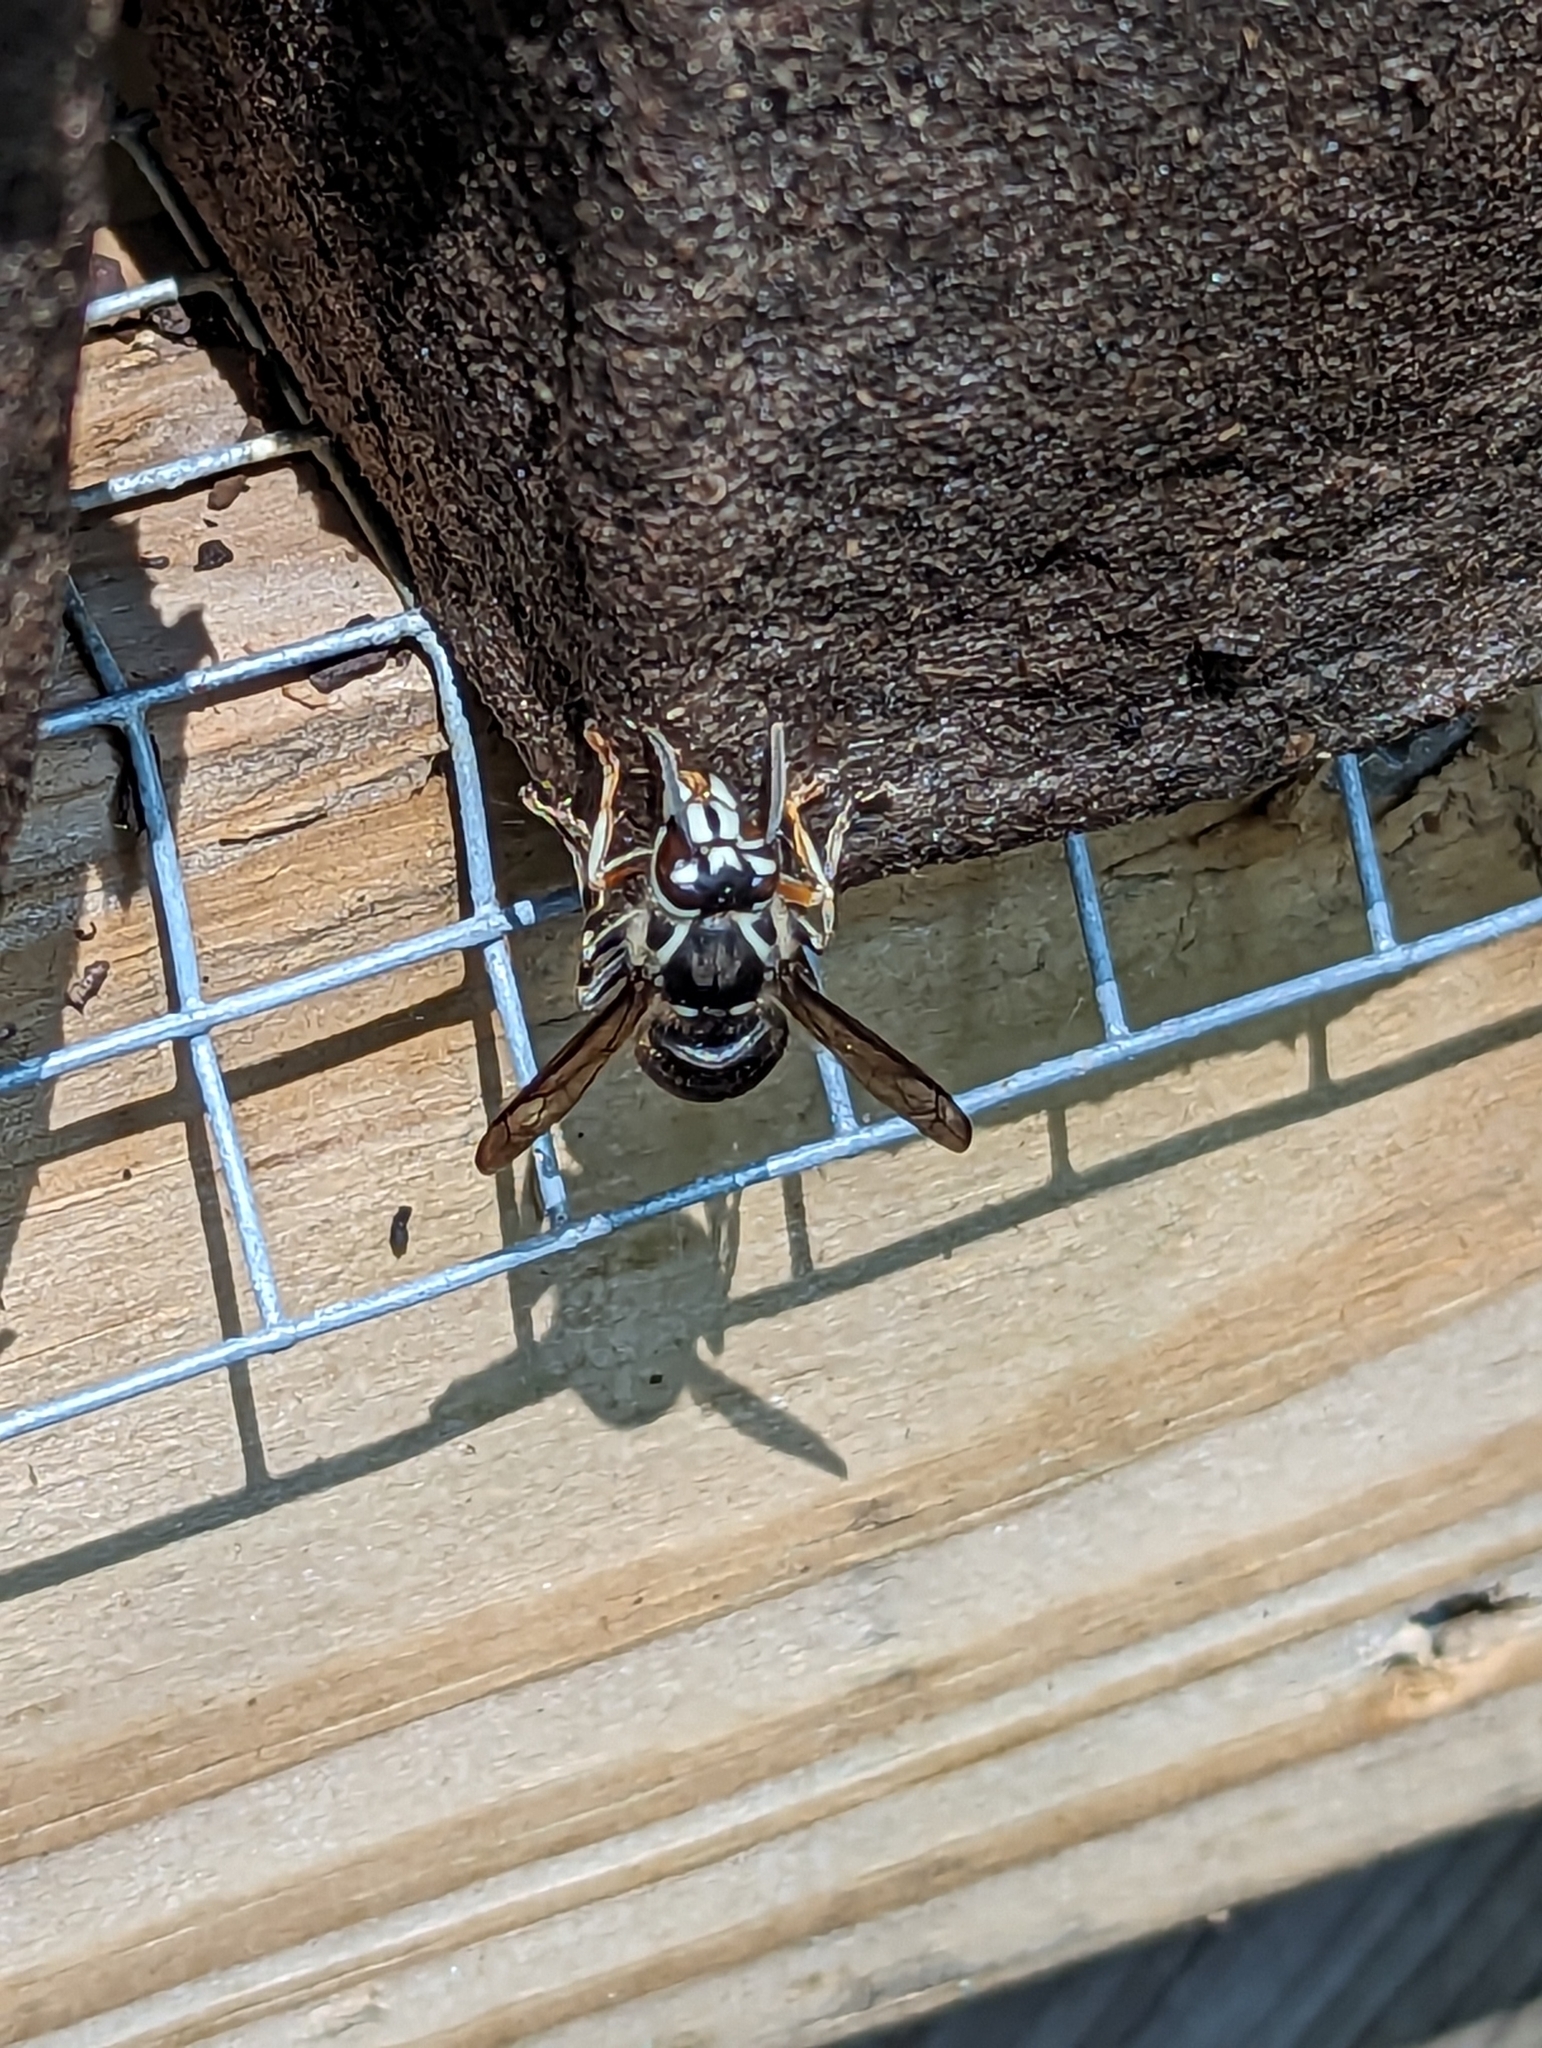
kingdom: Animalia
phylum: Arthropoda
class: Insecta
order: Hymenoptera
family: Vespidae
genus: Dolichovespula
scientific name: Dolichovespula maculata
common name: Bald-faced hornet
